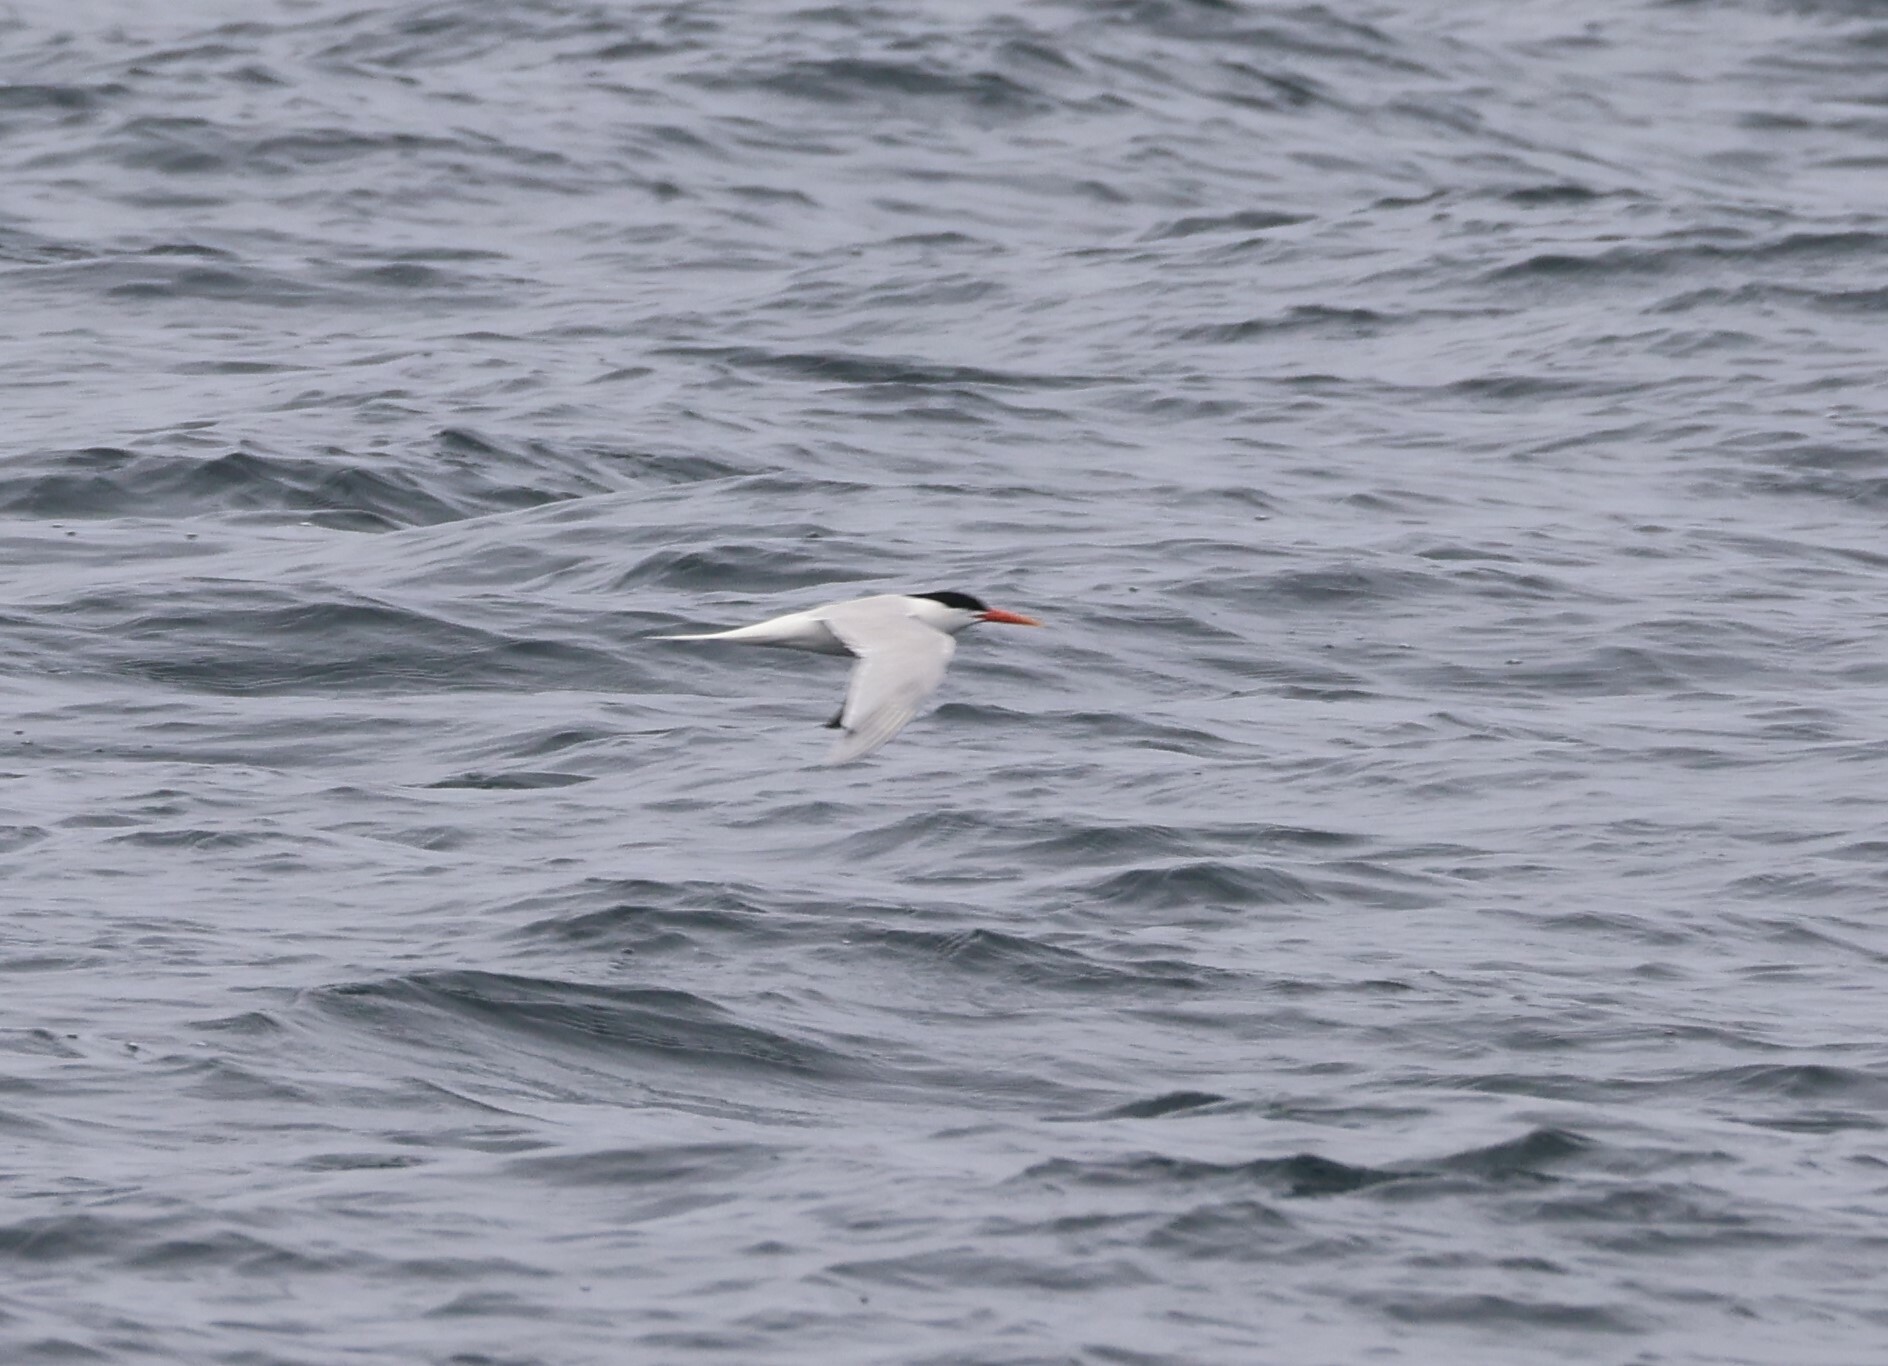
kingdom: Animalia
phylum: Chordata
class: Aves
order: Charadriiformes
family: Laridae
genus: Thalasseus
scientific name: Thalasseus elegans
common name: Elegant tern
